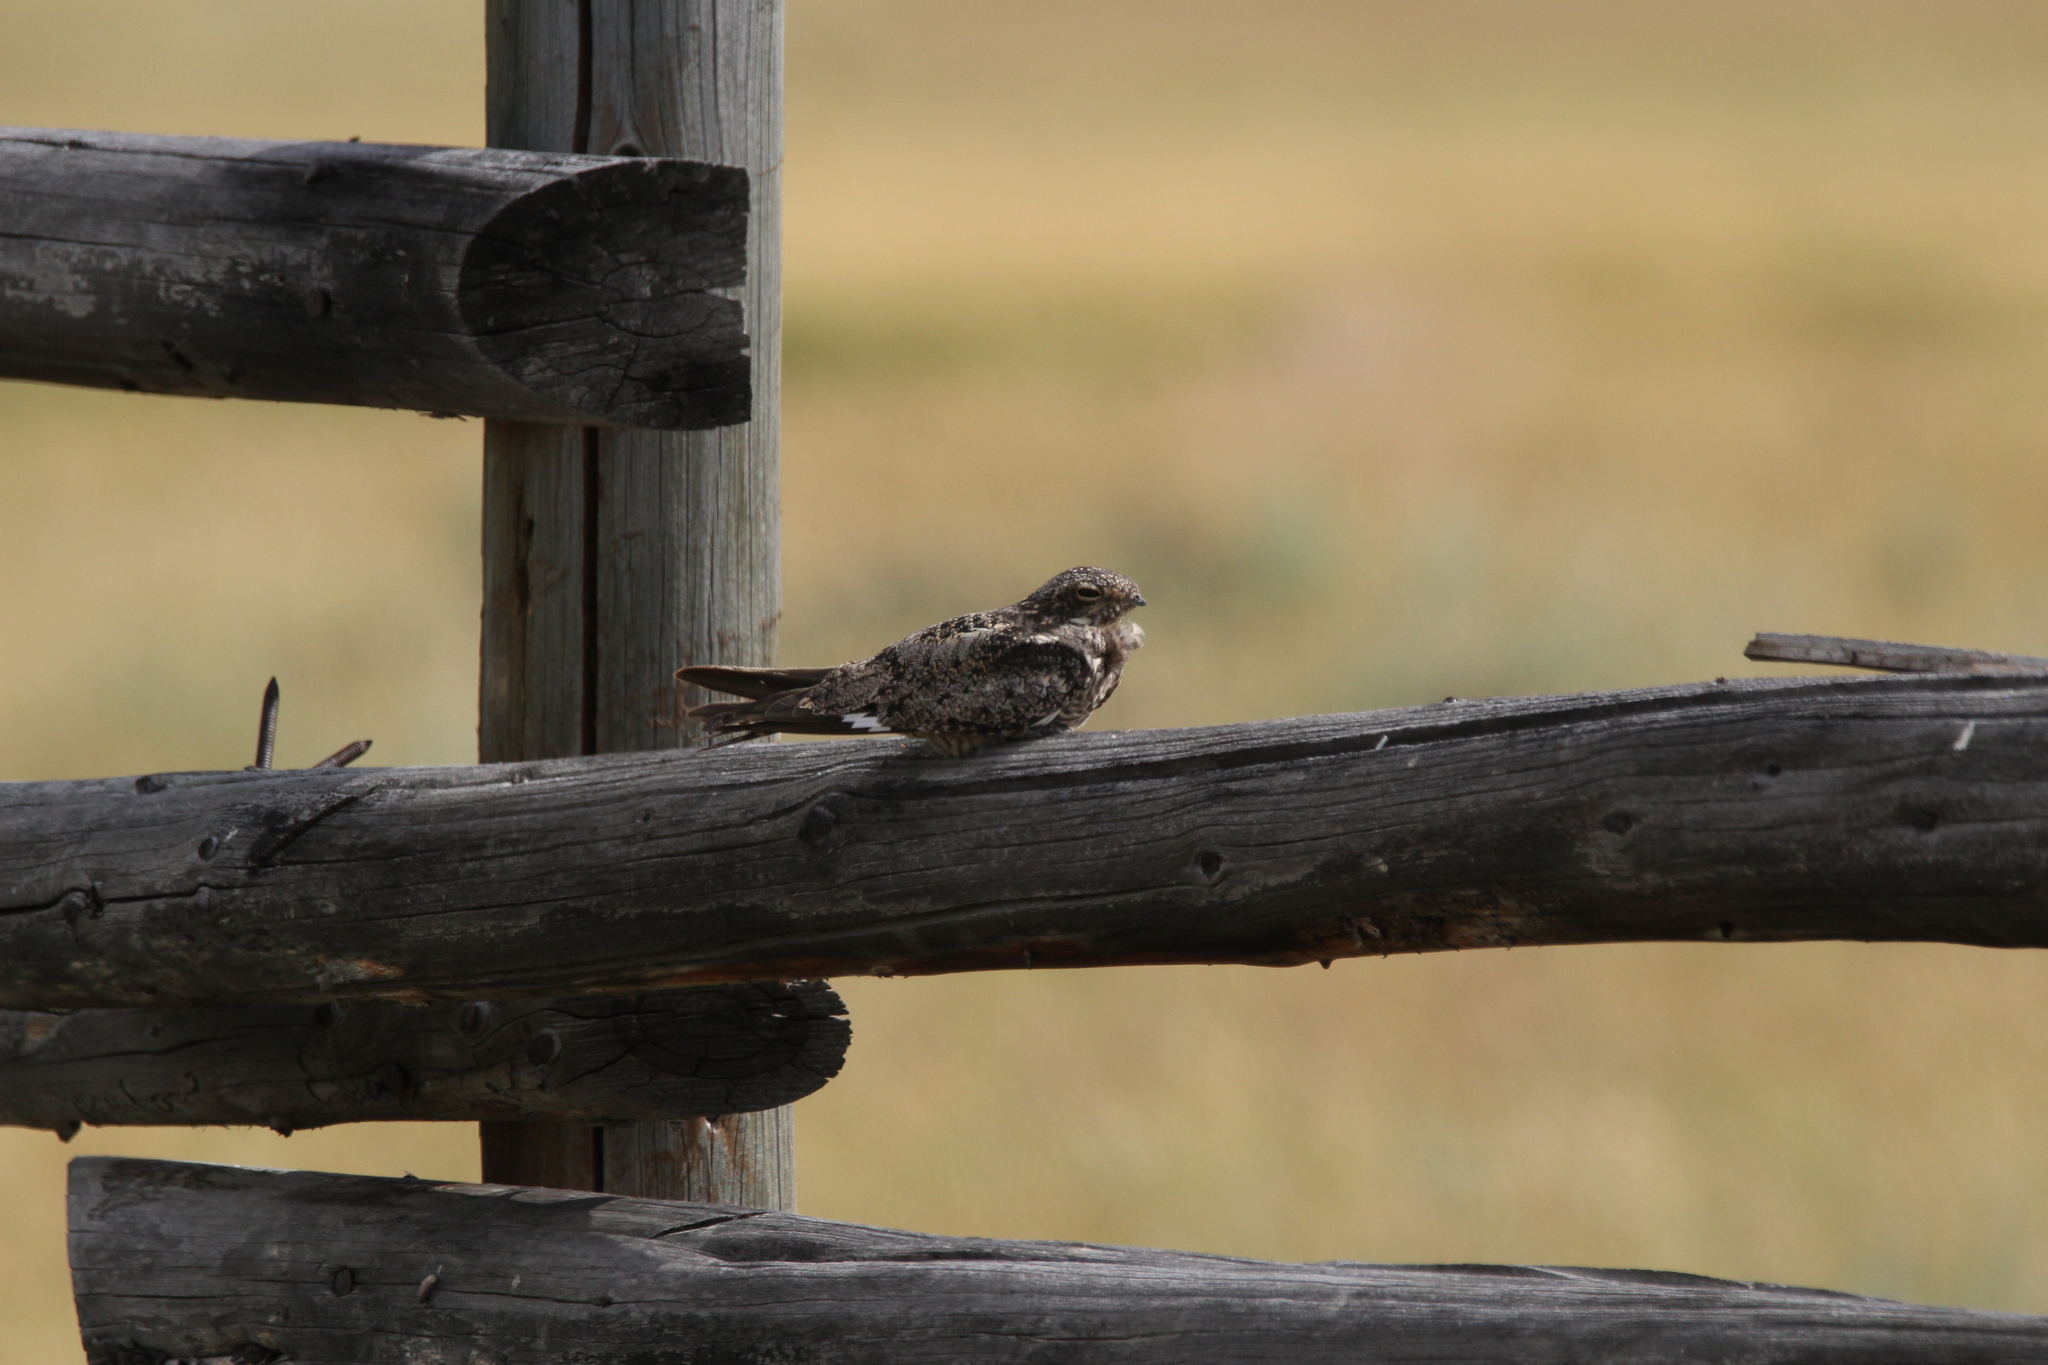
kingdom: Animalia
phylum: Chordata
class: Aves
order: Caprimulgiformes
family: Caprimulgidae
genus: Chordeiles
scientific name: Chordeiles minor
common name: Common nighthawk
